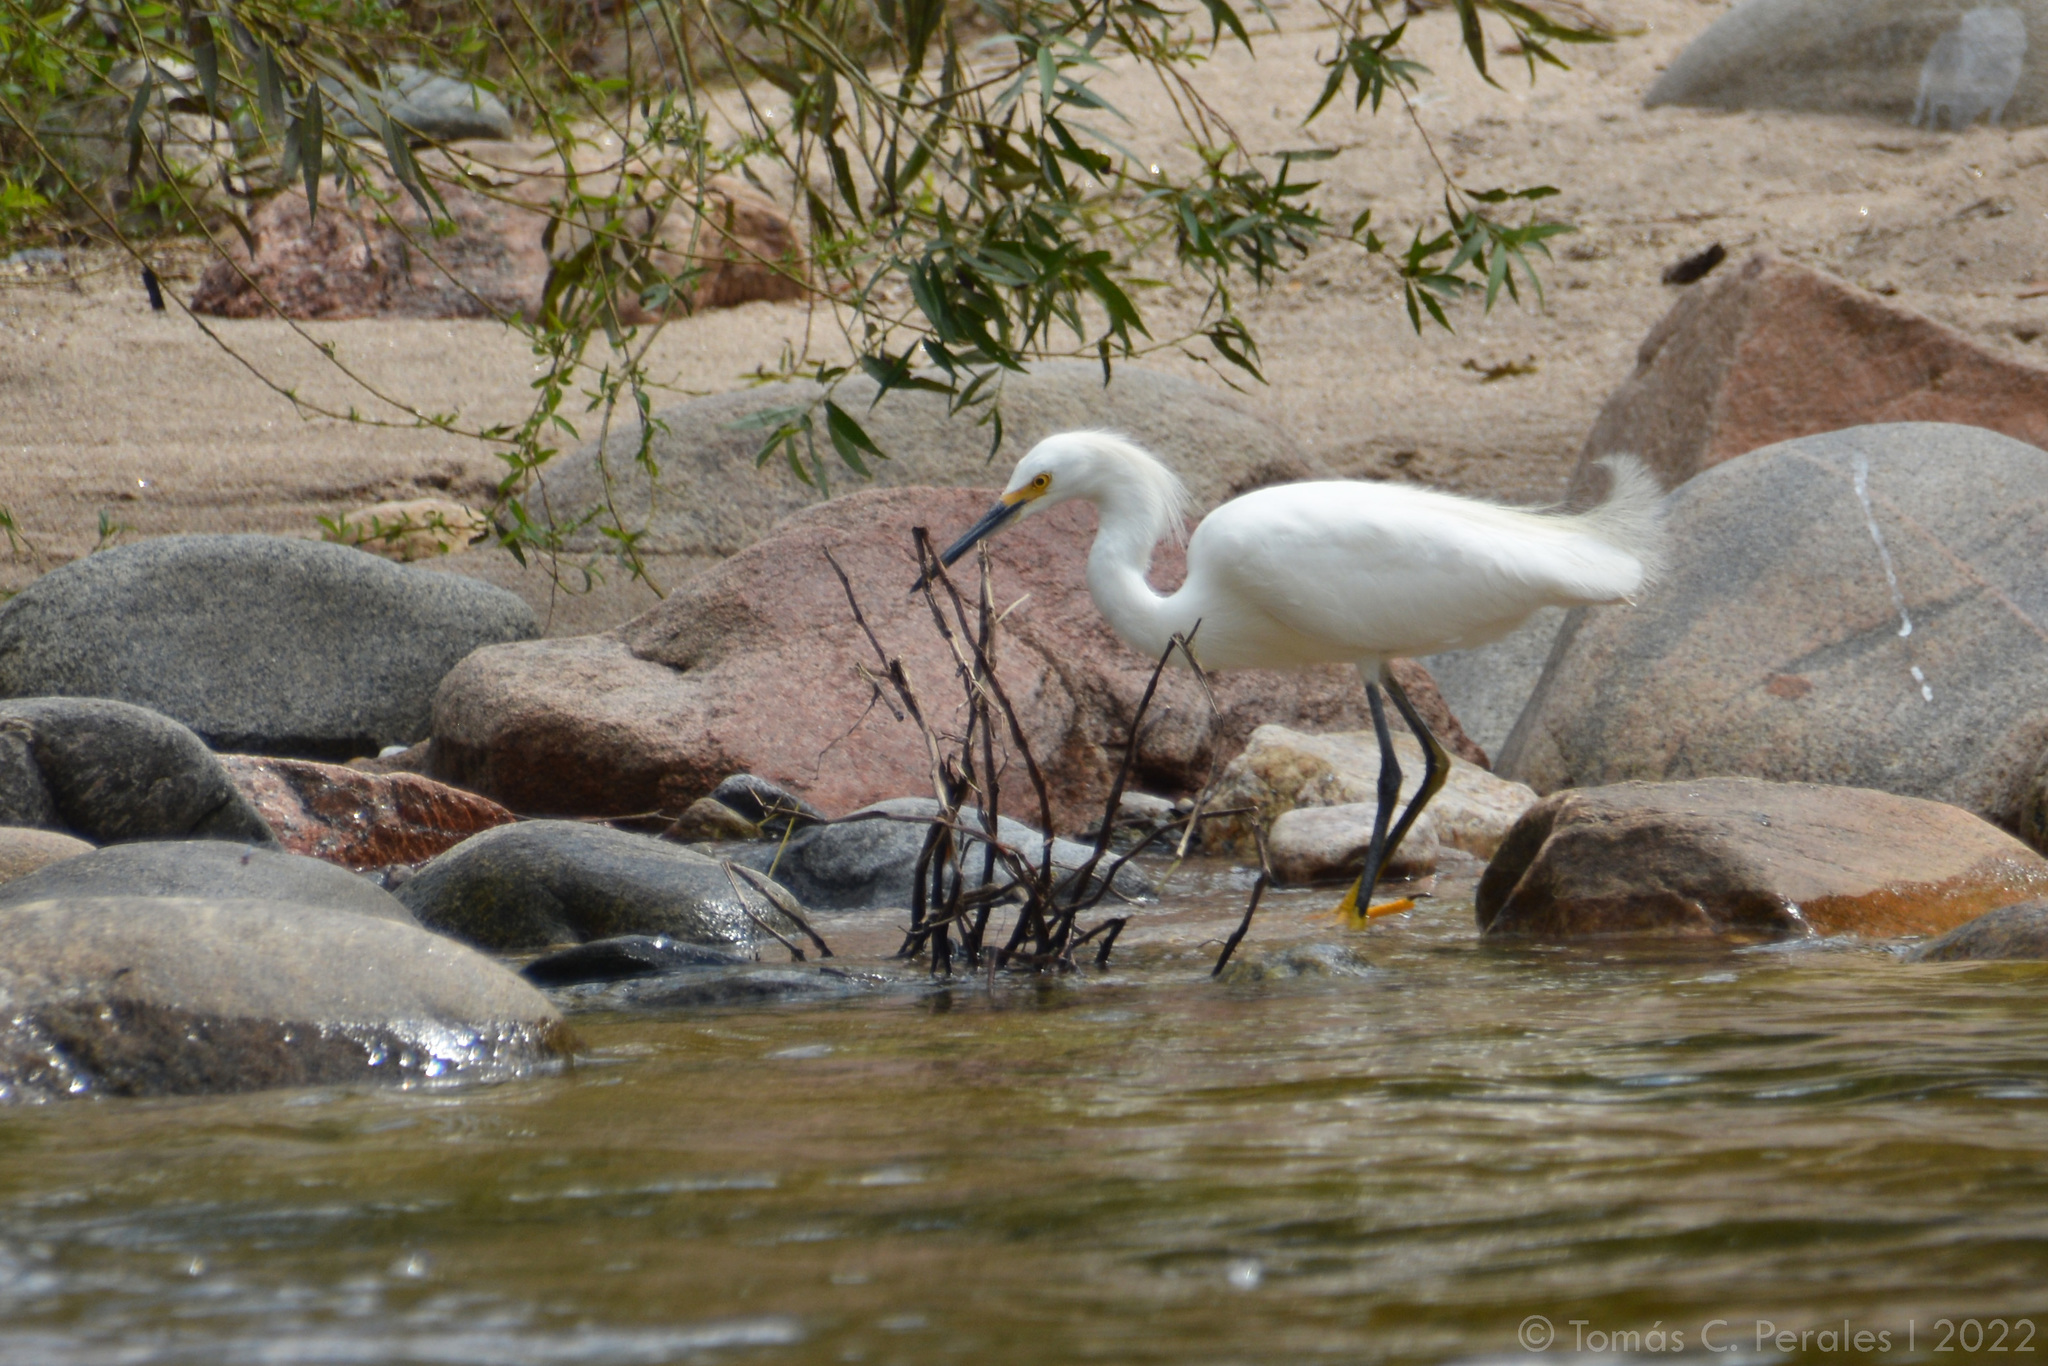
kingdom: Animalia
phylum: Chordata
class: Aves
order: Pelecaniformes
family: Ardeidae
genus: Egretta
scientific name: Egretta thula
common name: Snowy egret
